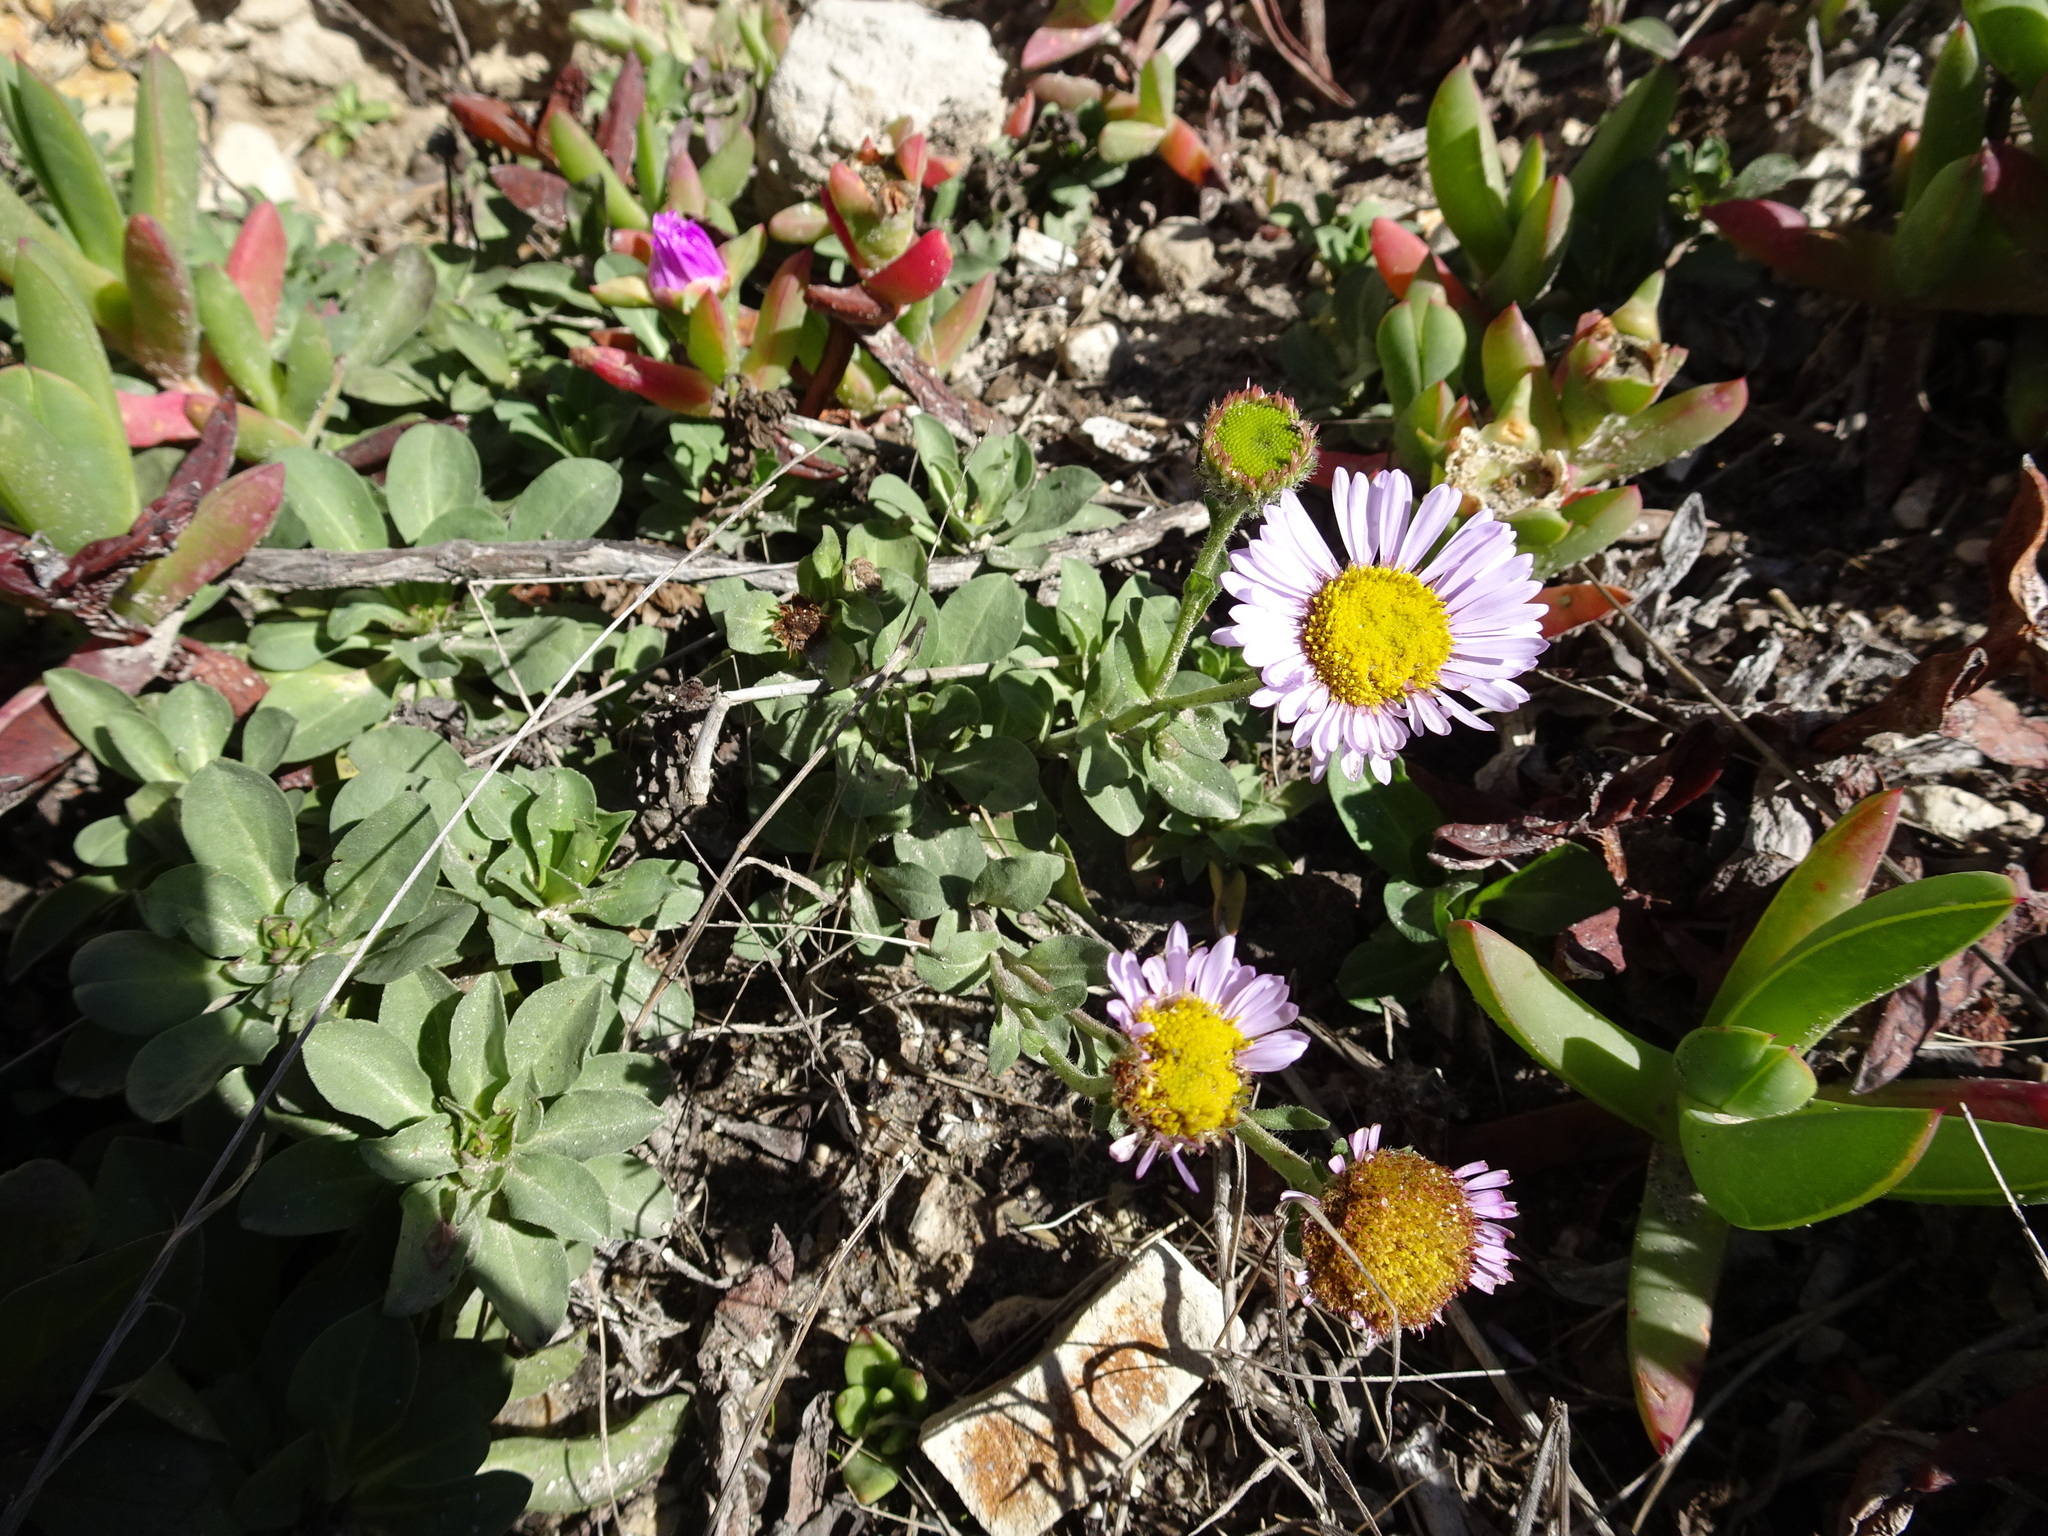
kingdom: Plantae
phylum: Tracheophyta
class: Magnoliopsida
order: Asterales
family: Asteraceae
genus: Erigeron
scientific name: Erigeron glaucus
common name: Seaside daisy
